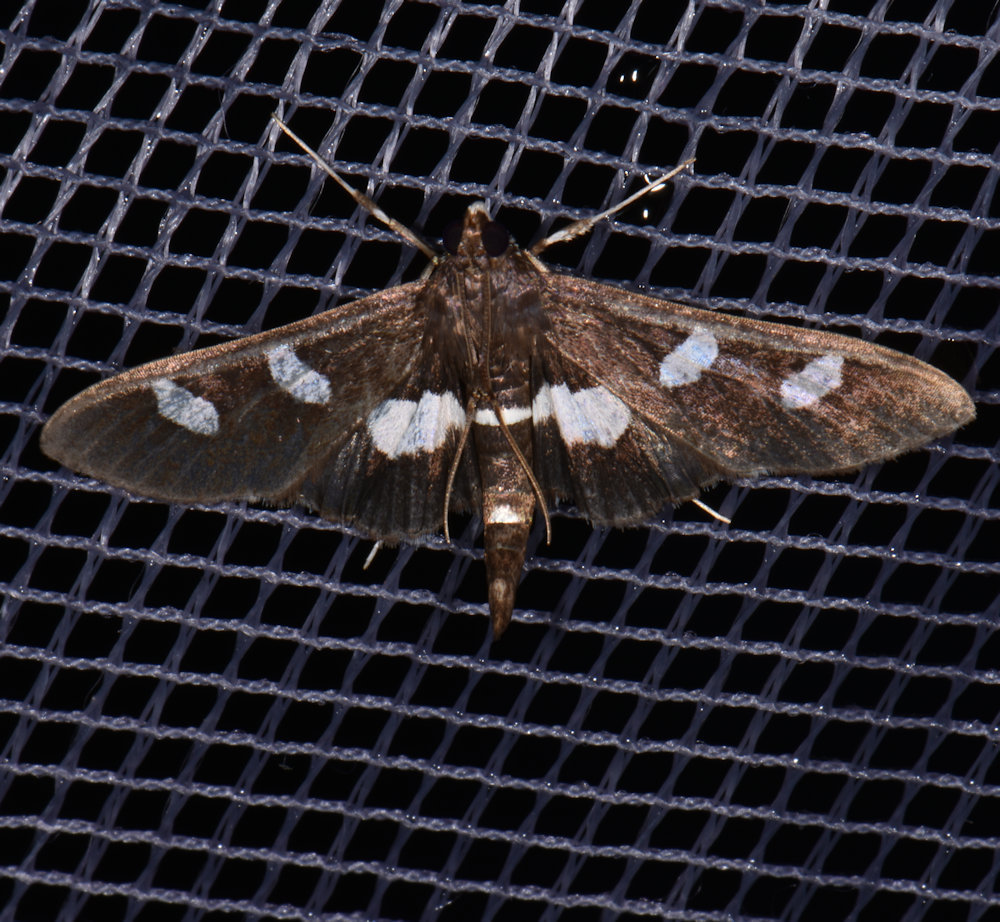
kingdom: Animalia
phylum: Arthropoda
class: Insecta
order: Lepidoptera
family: Crambidae
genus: Desmia
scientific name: Desmia funeralis
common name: Grape leaf folder moth
